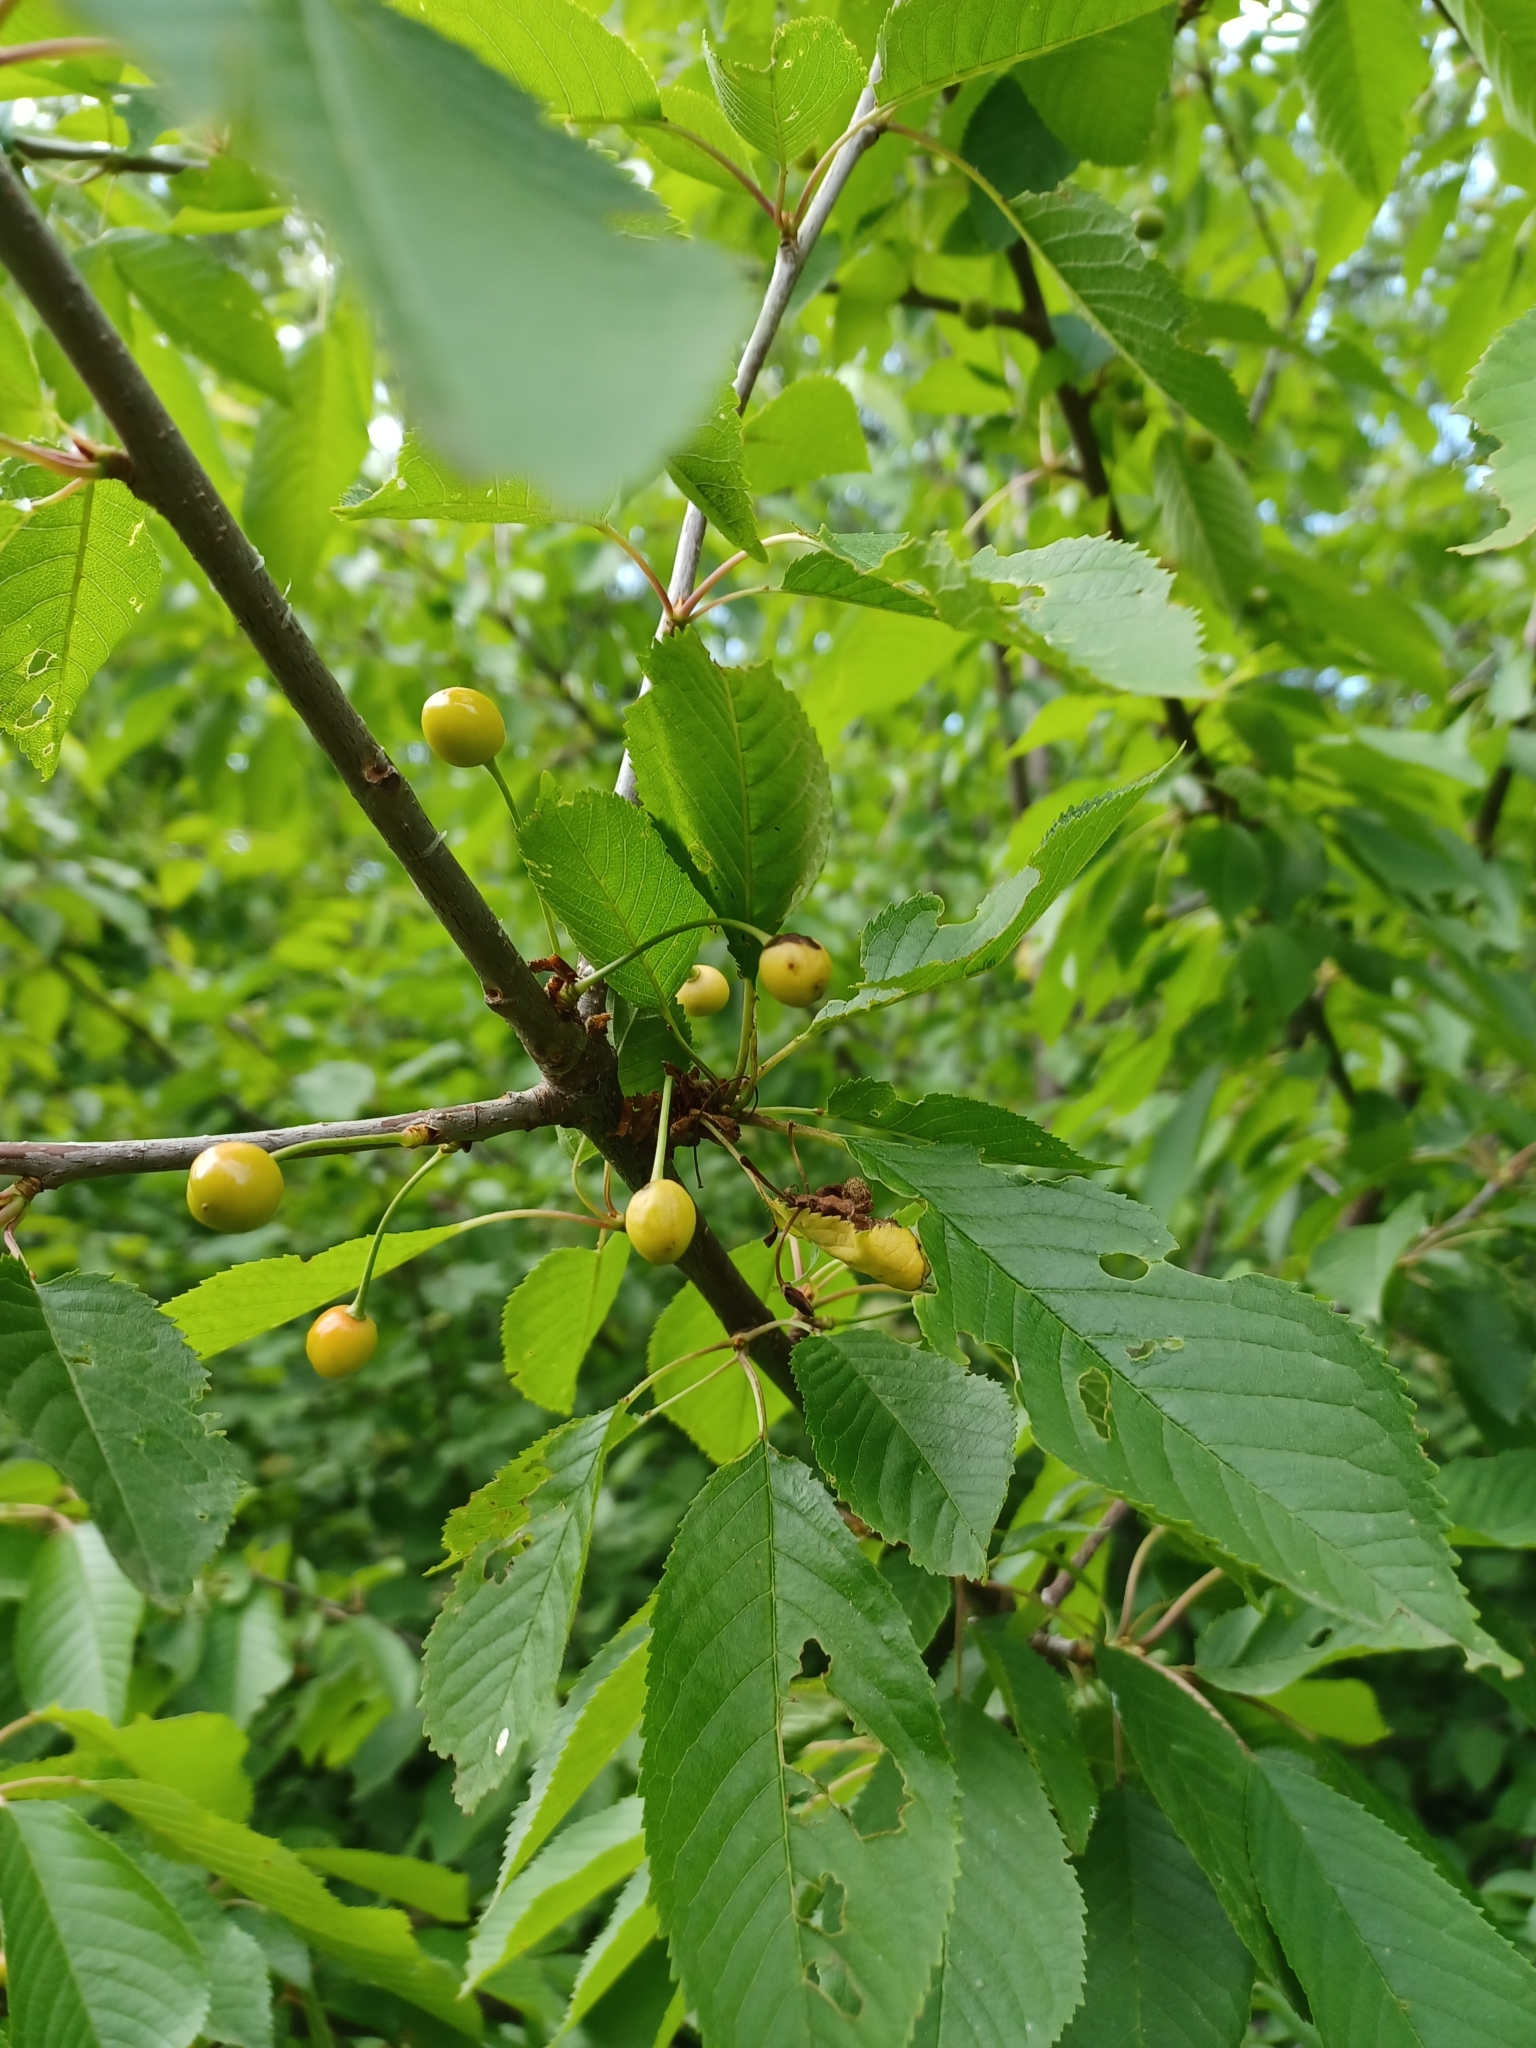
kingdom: Plantae
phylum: Tracheophyta
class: Magnoliopsida
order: Rosales
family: Rosaceae
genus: Prunus
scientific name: Prunus avium
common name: Sweet cherry
